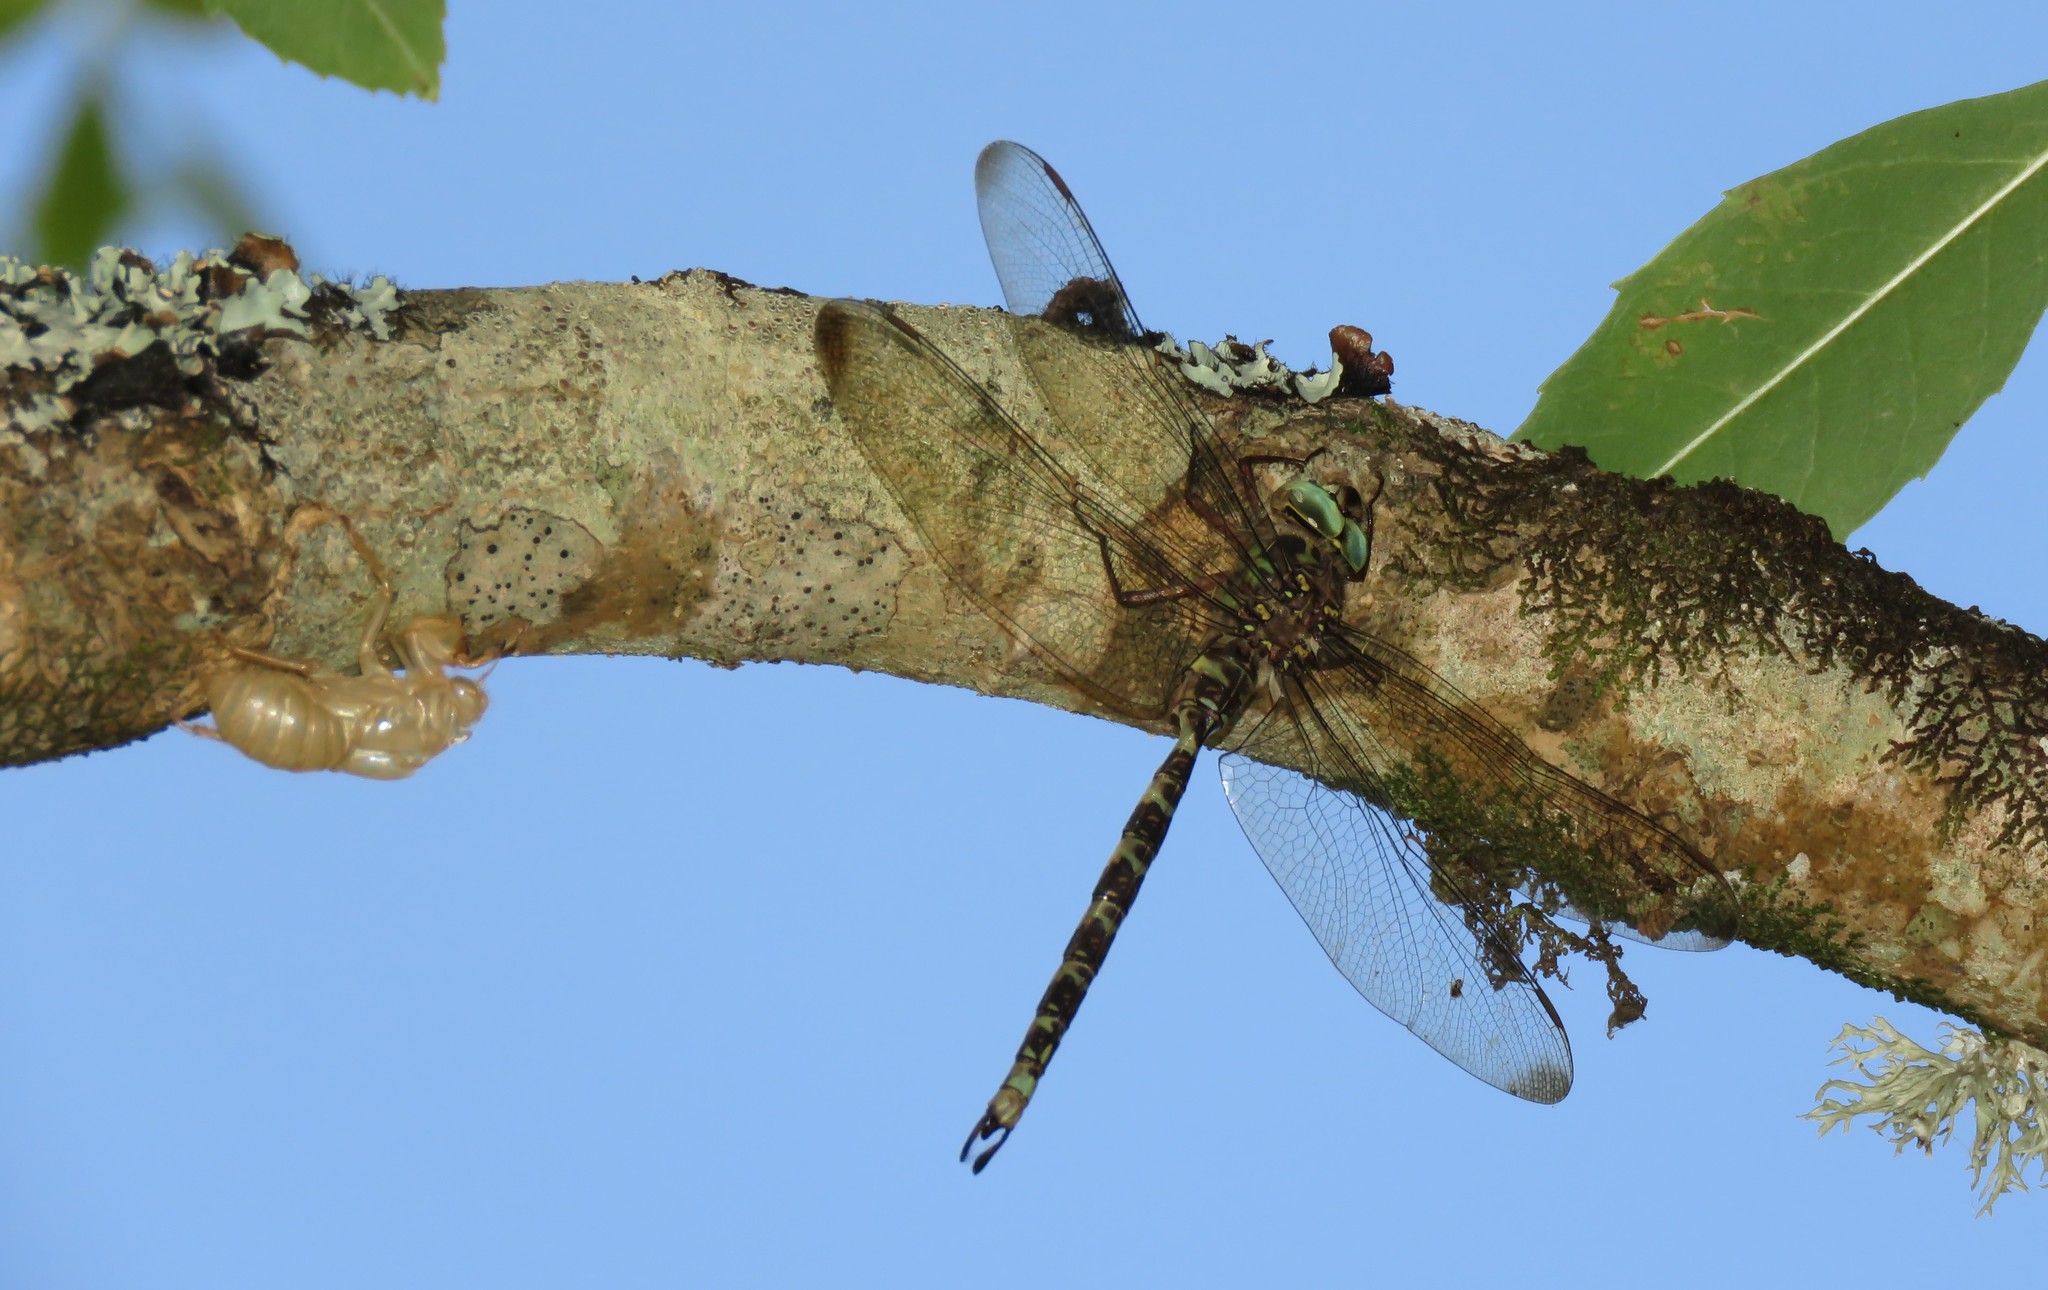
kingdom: Animalia
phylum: Arthropoda
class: Insecta
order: Odonata
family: Aeshnidae
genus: Boyeria
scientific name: Boyeria irene
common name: Western spectre
